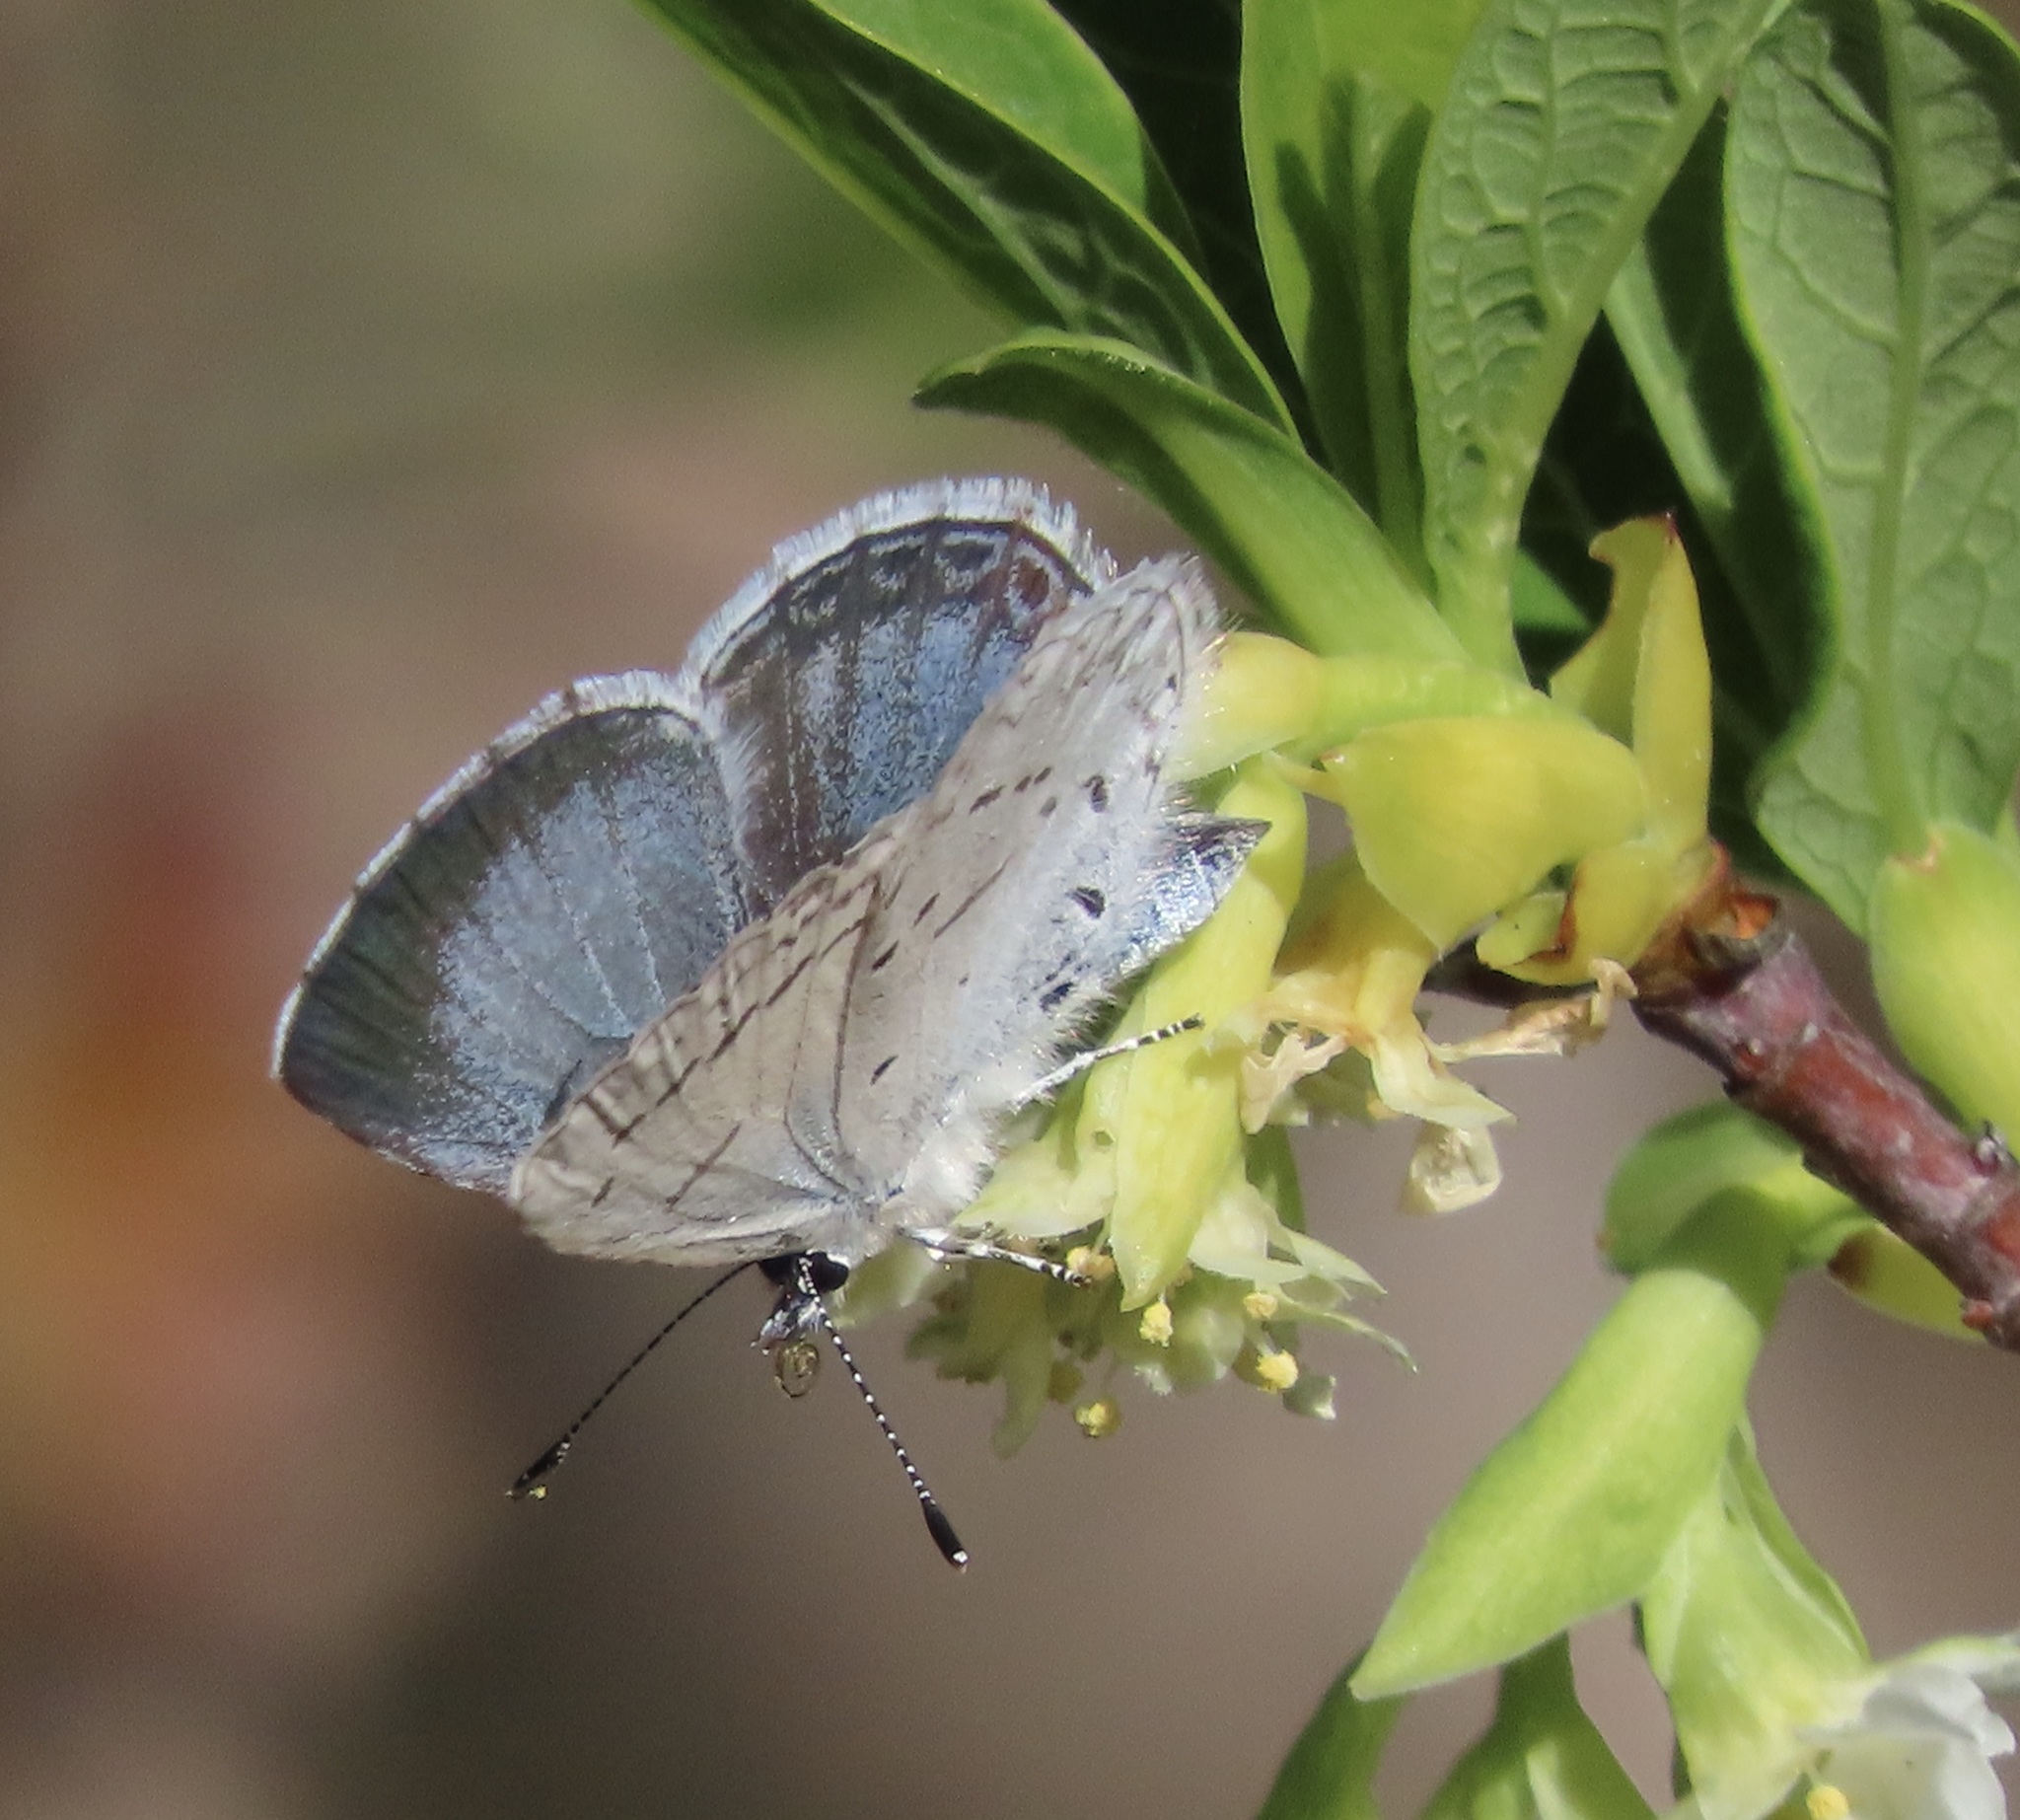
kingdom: Animalia
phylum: Arthropoda
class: Insecta
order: Lepidoptera
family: Lycaenidae
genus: Celastrina
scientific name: Celastrina ladon
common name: Spring azure
